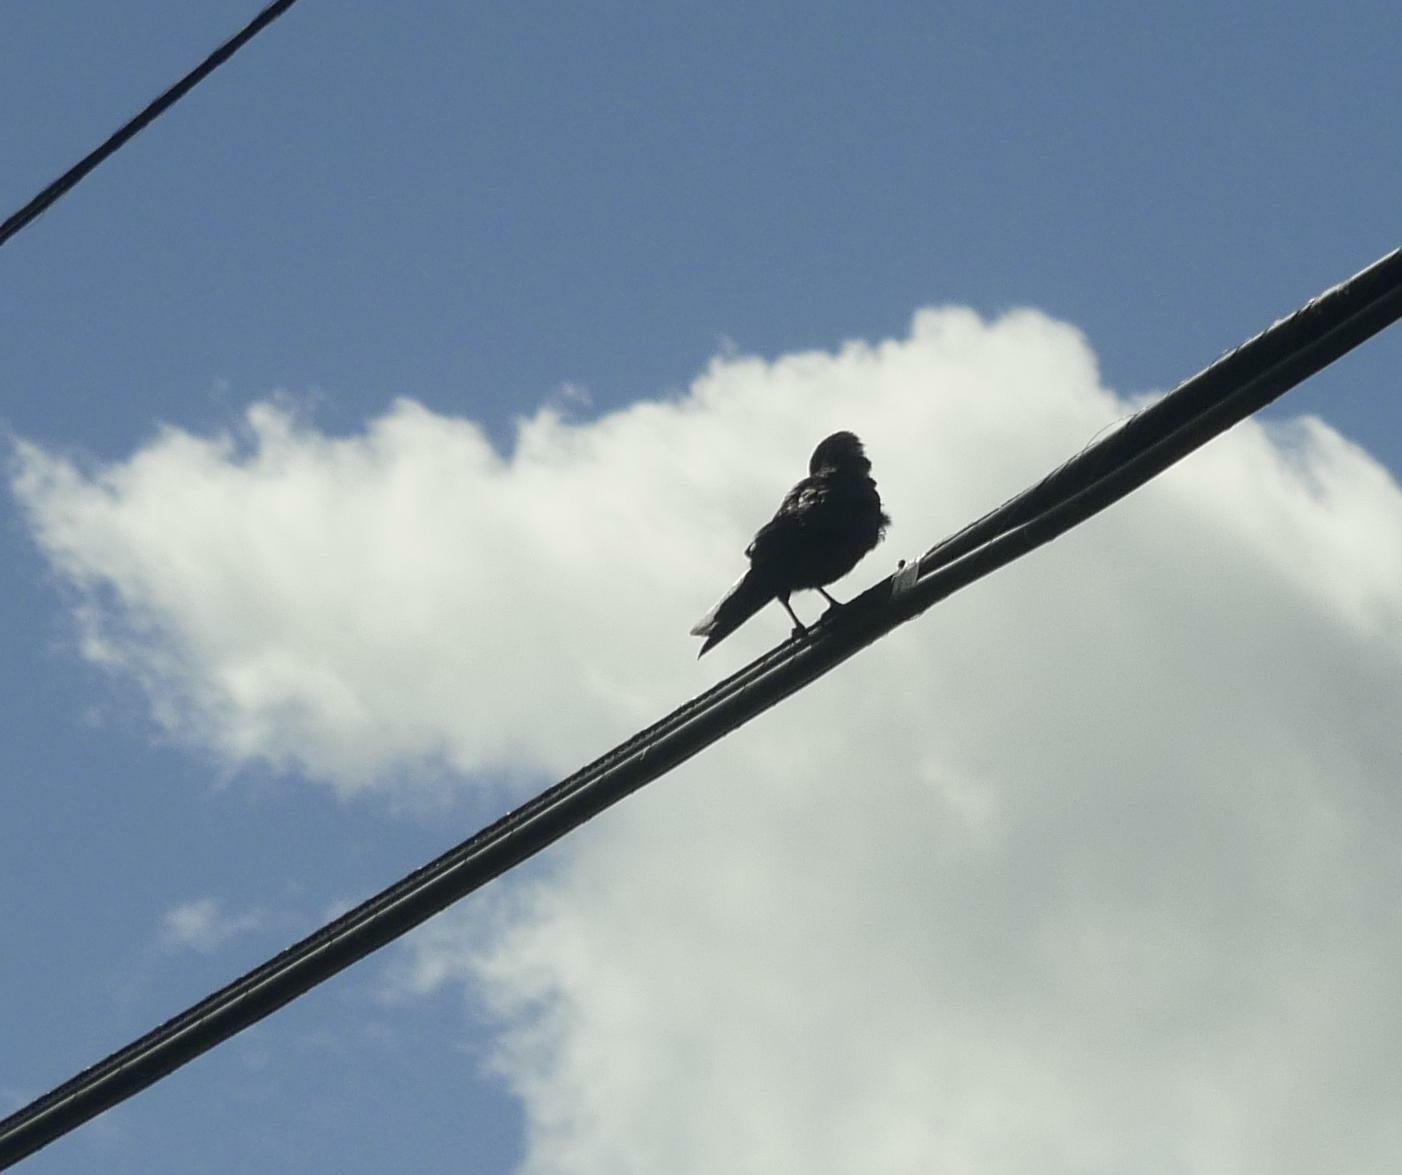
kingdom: Animalia
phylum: Chordata
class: Aves
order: Passeriformes
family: Corvidae
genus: Corvus
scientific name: Corvus brachyrhynchos
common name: American crow
